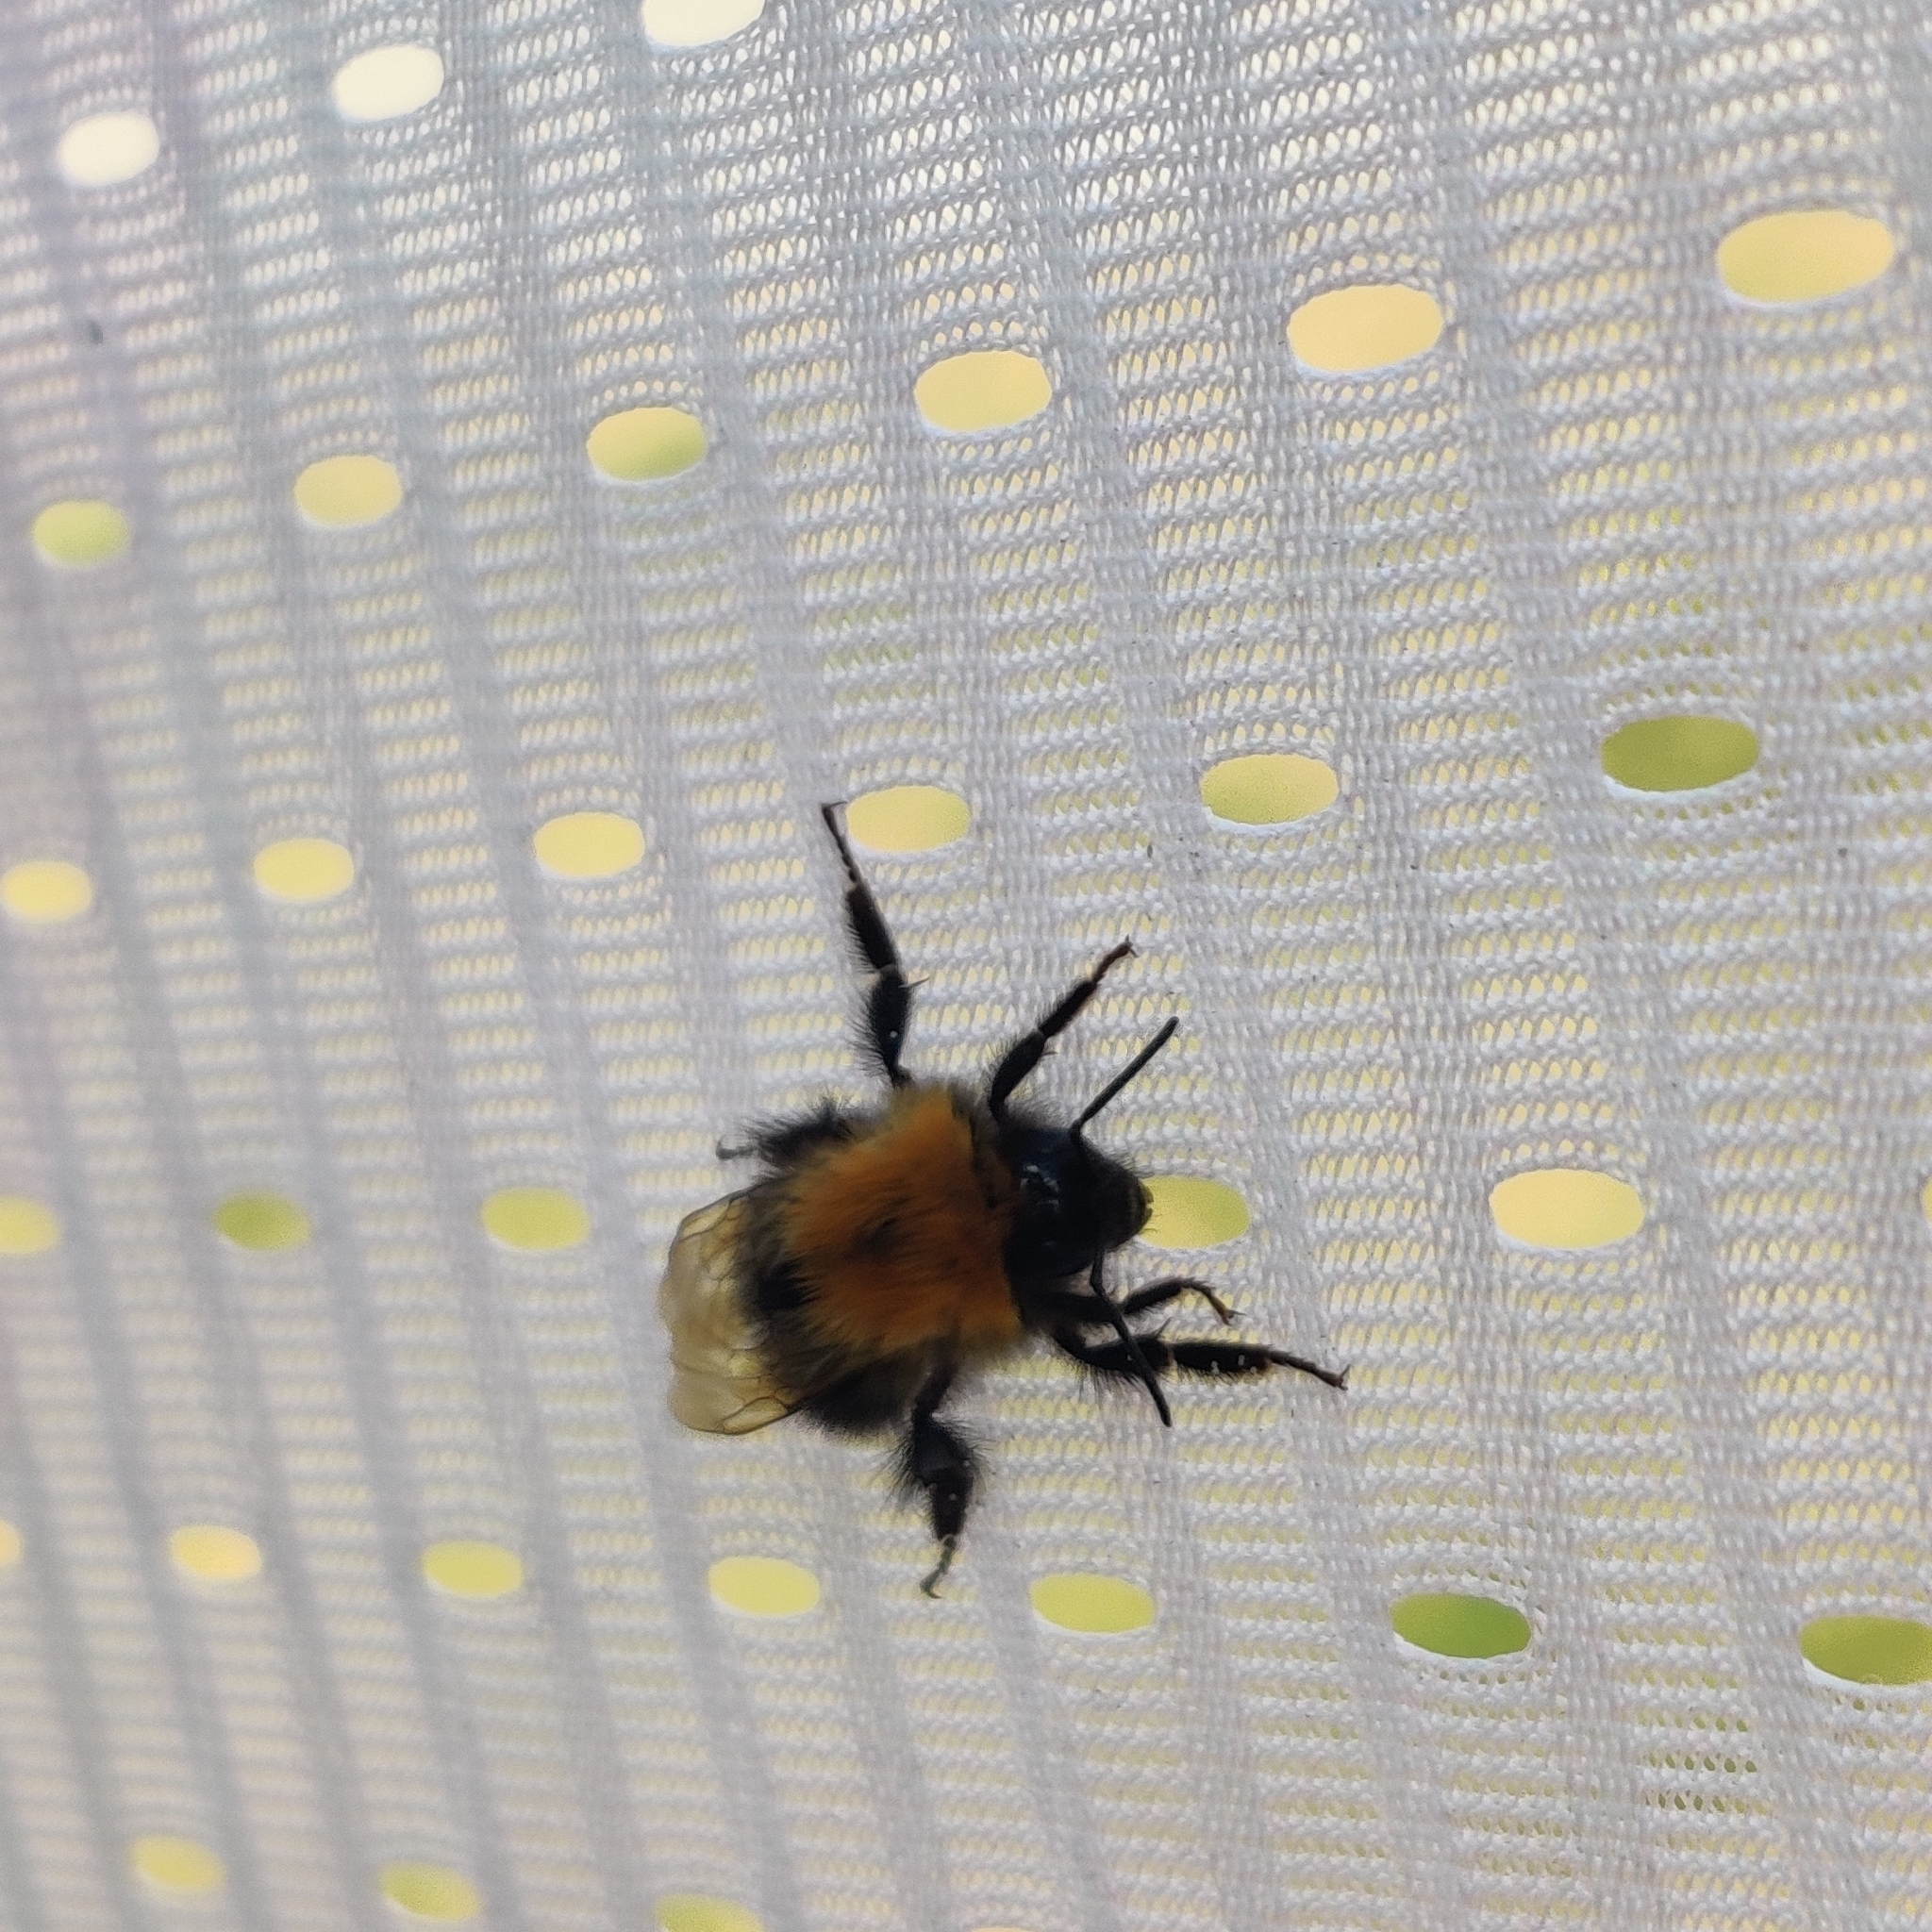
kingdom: Animalia
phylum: Arthropoda
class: Insecta
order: Hymenoptera
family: Apidae
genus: Bombus
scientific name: Bombus hypnorum
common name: New garden bumblebee
